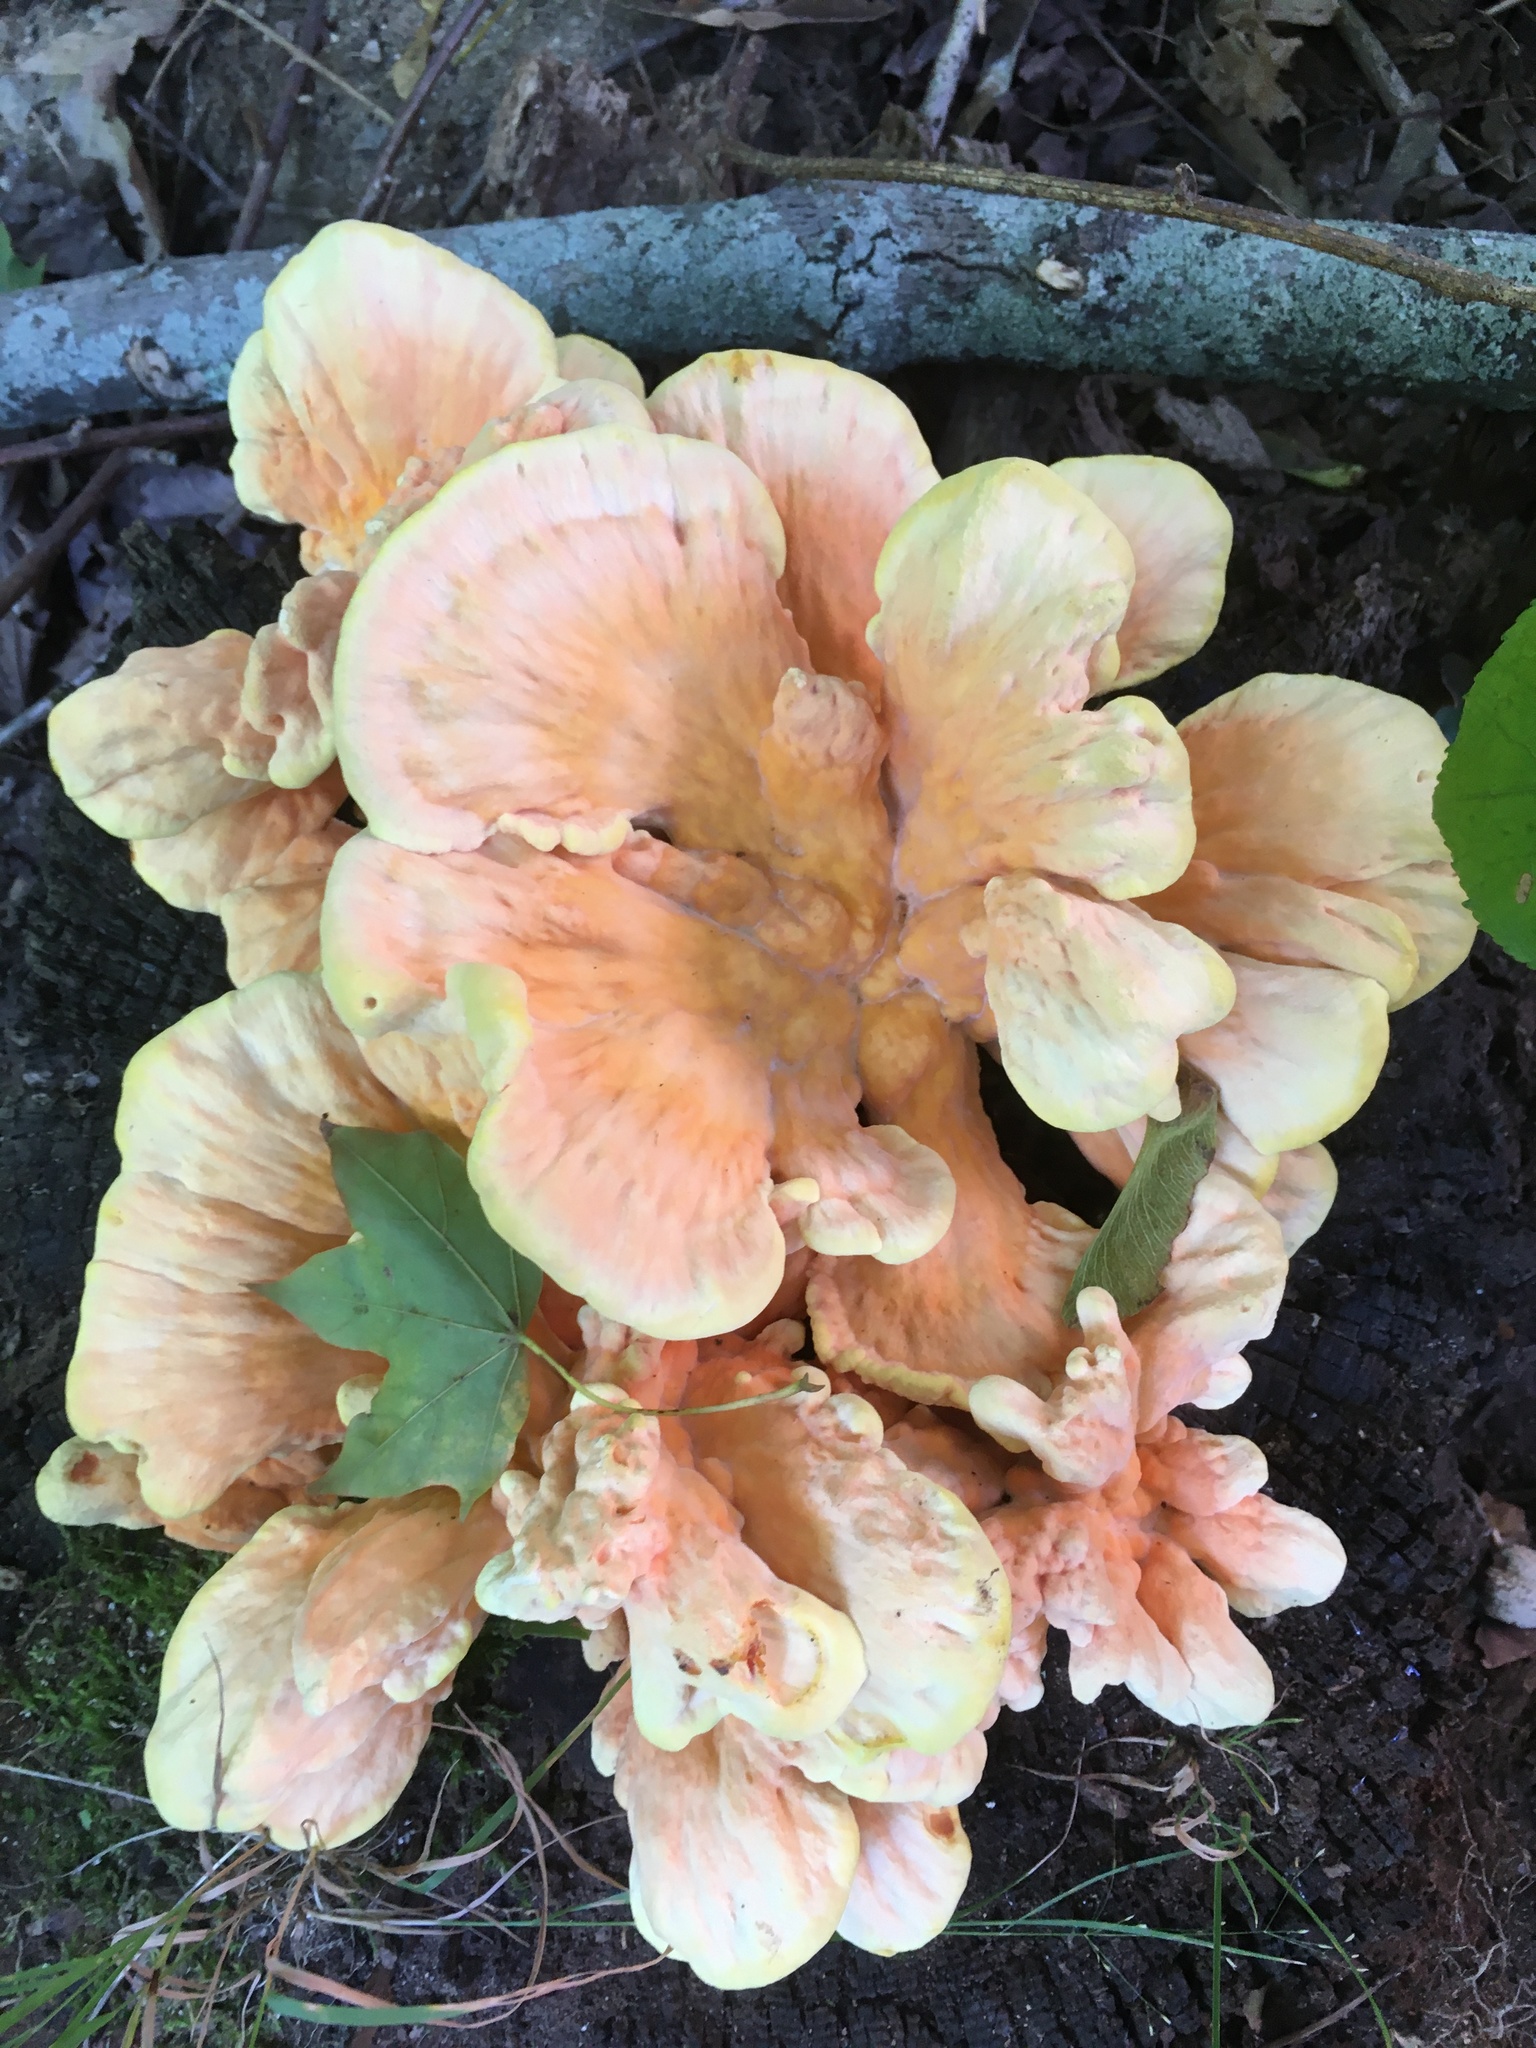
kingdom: Fungi
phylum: Basidiomycota
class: Agaricomycetes
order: Polyporales
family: Laetiporaceae
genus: Laetiporus
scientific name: Laetiporus sulphureus
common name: Chicken of the woods
